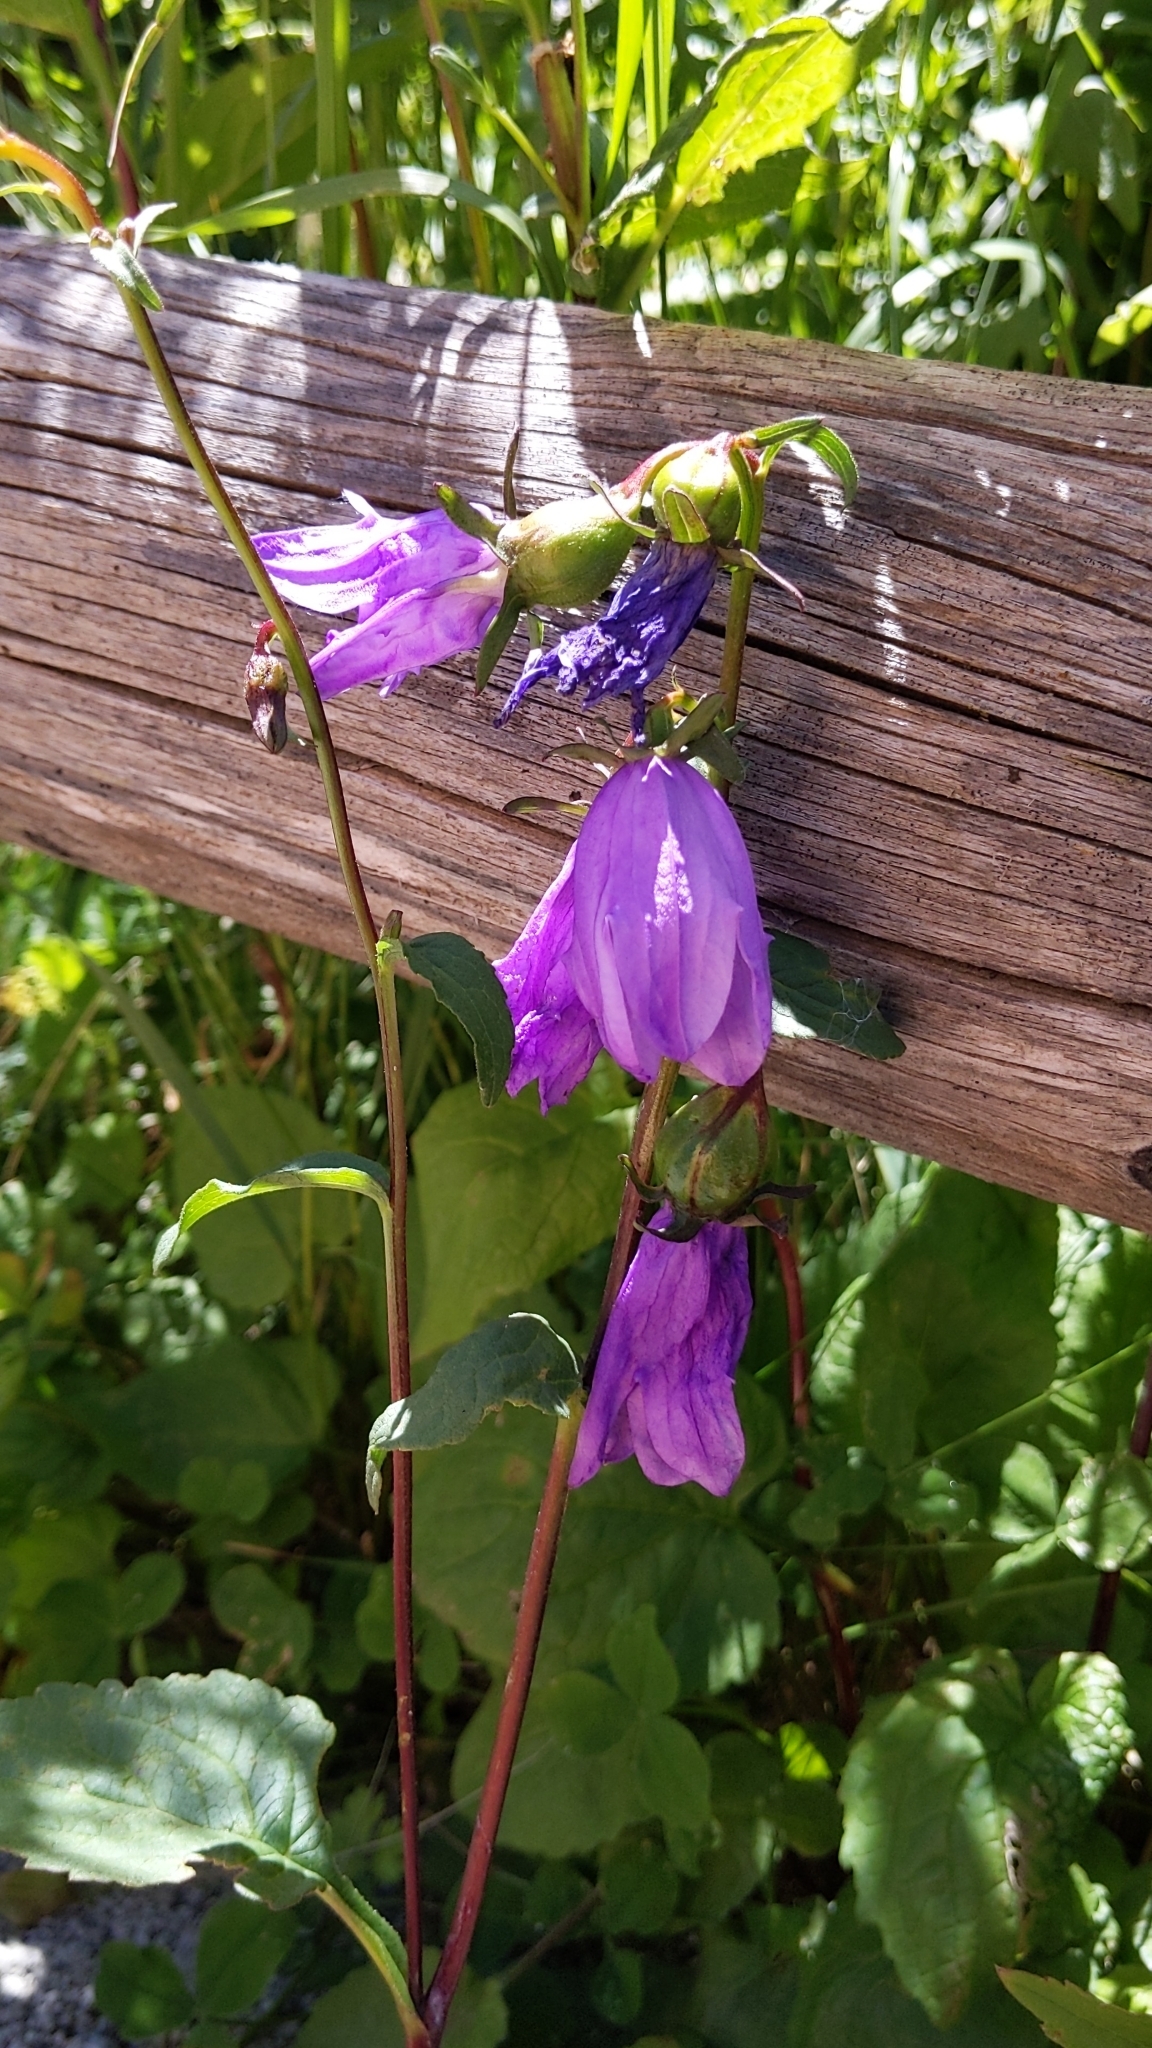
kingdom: Plantae
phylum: Tracheophyta
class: Magnoliopsida
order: Asterales
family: Campanulaceae
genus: Campanula
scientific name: Campanula rapunculoides
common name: Creeping bellflower
